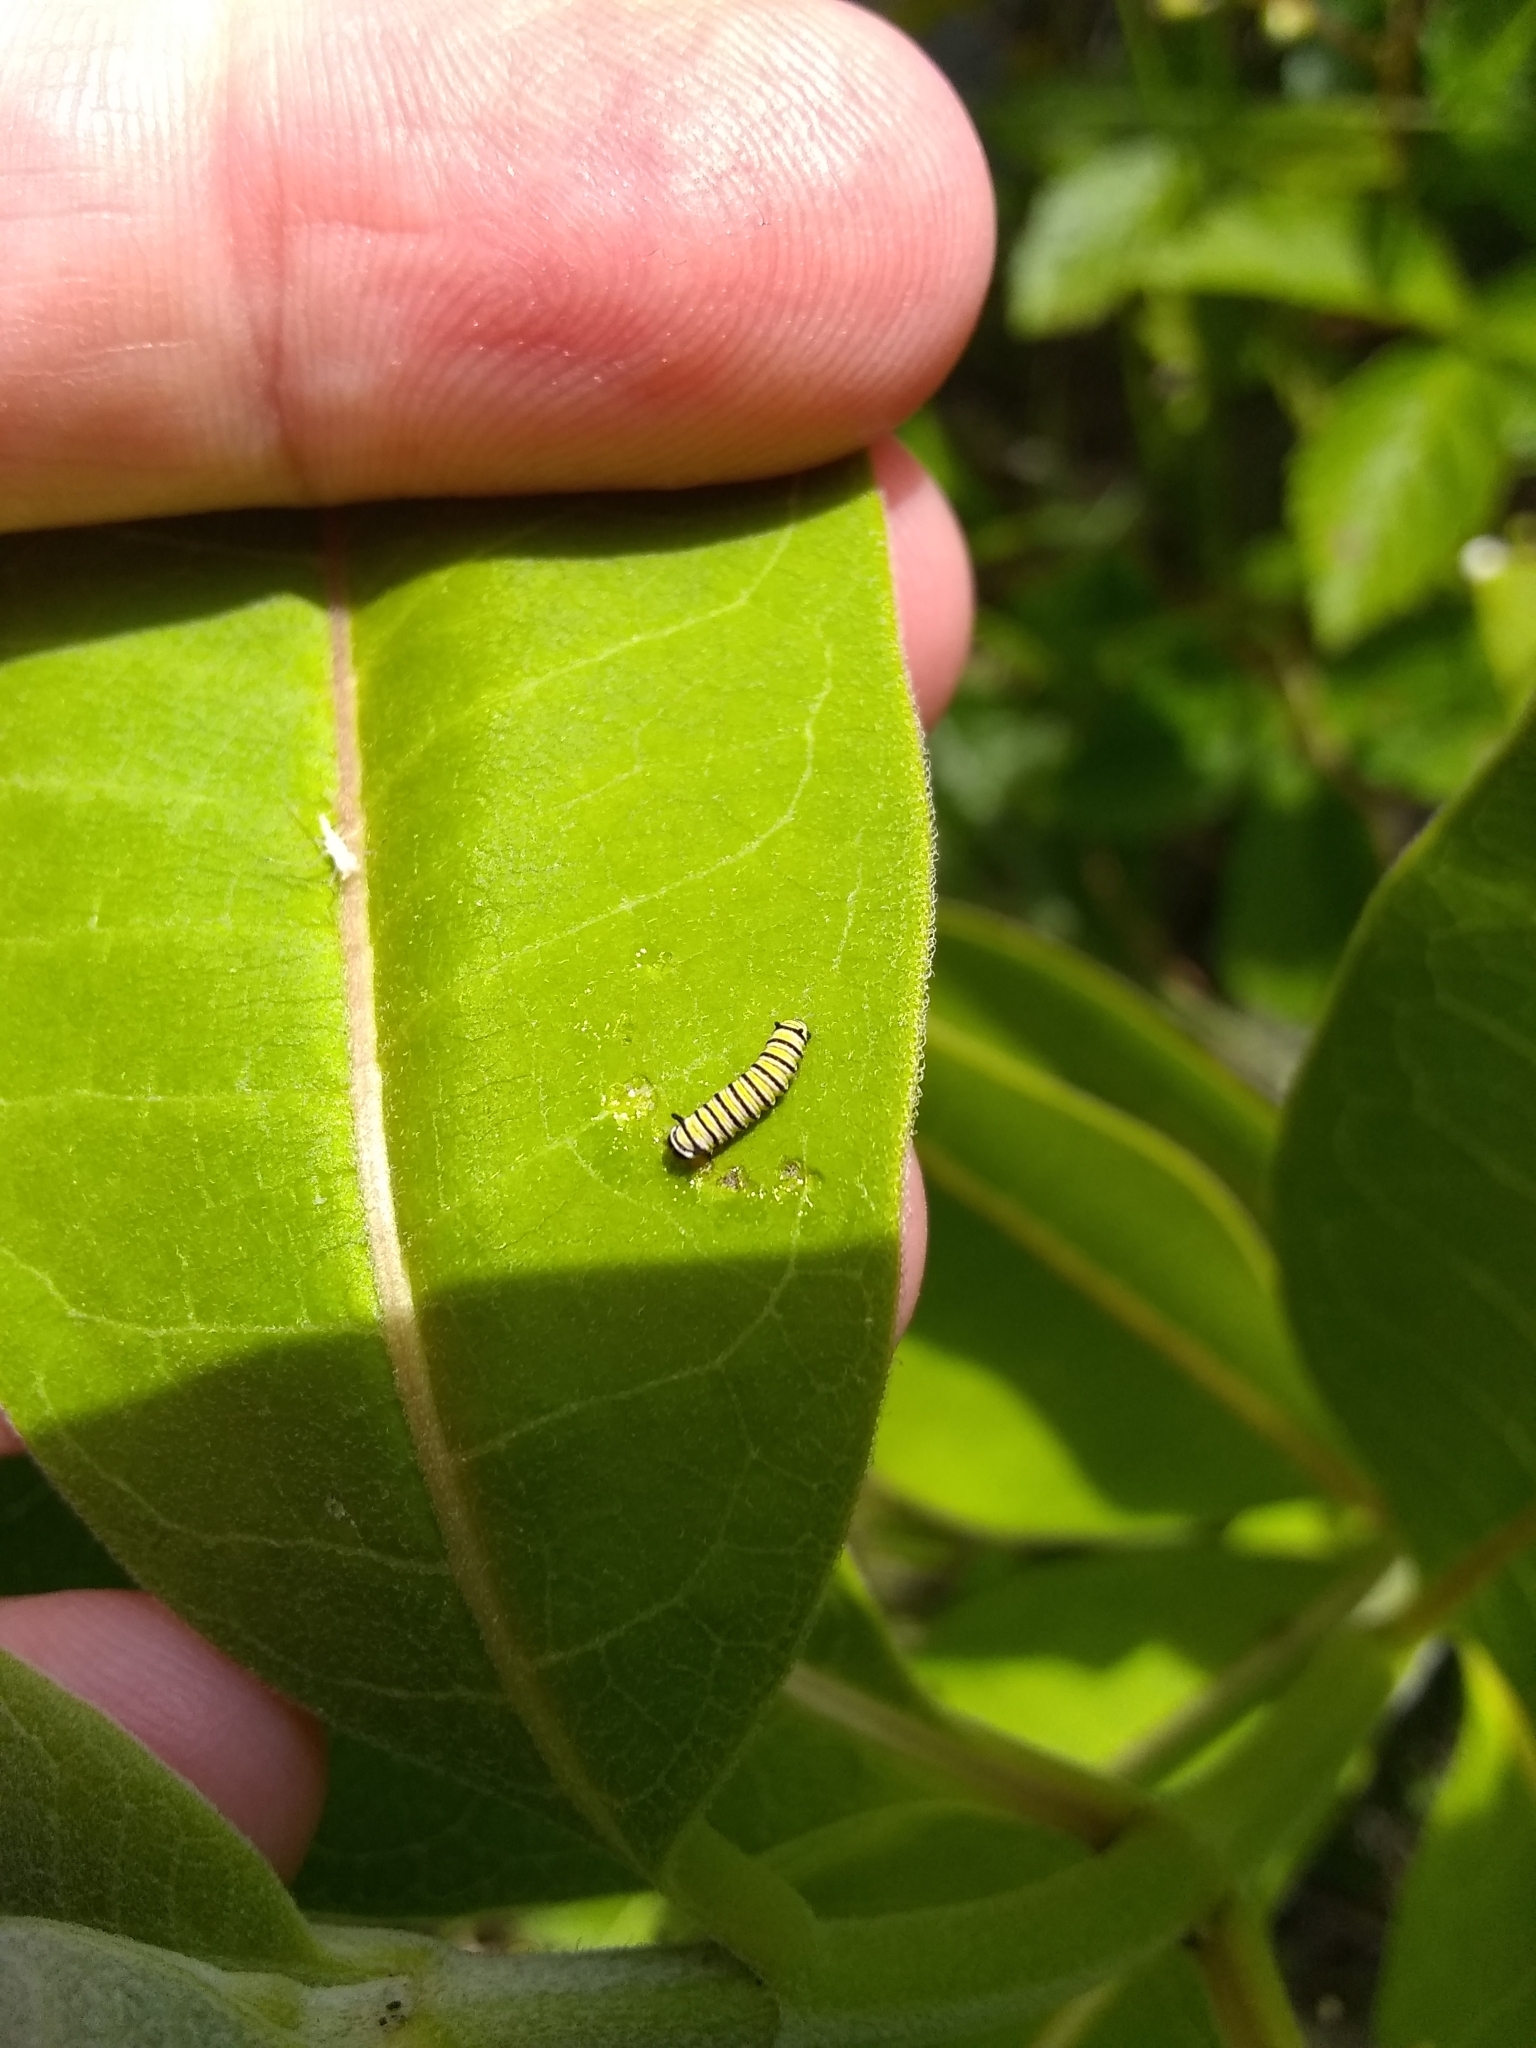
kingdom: Animalia
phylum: Arthropoda
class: Insecta
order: Lepidoptera
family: Nymphalidae
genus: Danaus
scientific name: Danaus plexippus
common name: Monarch
